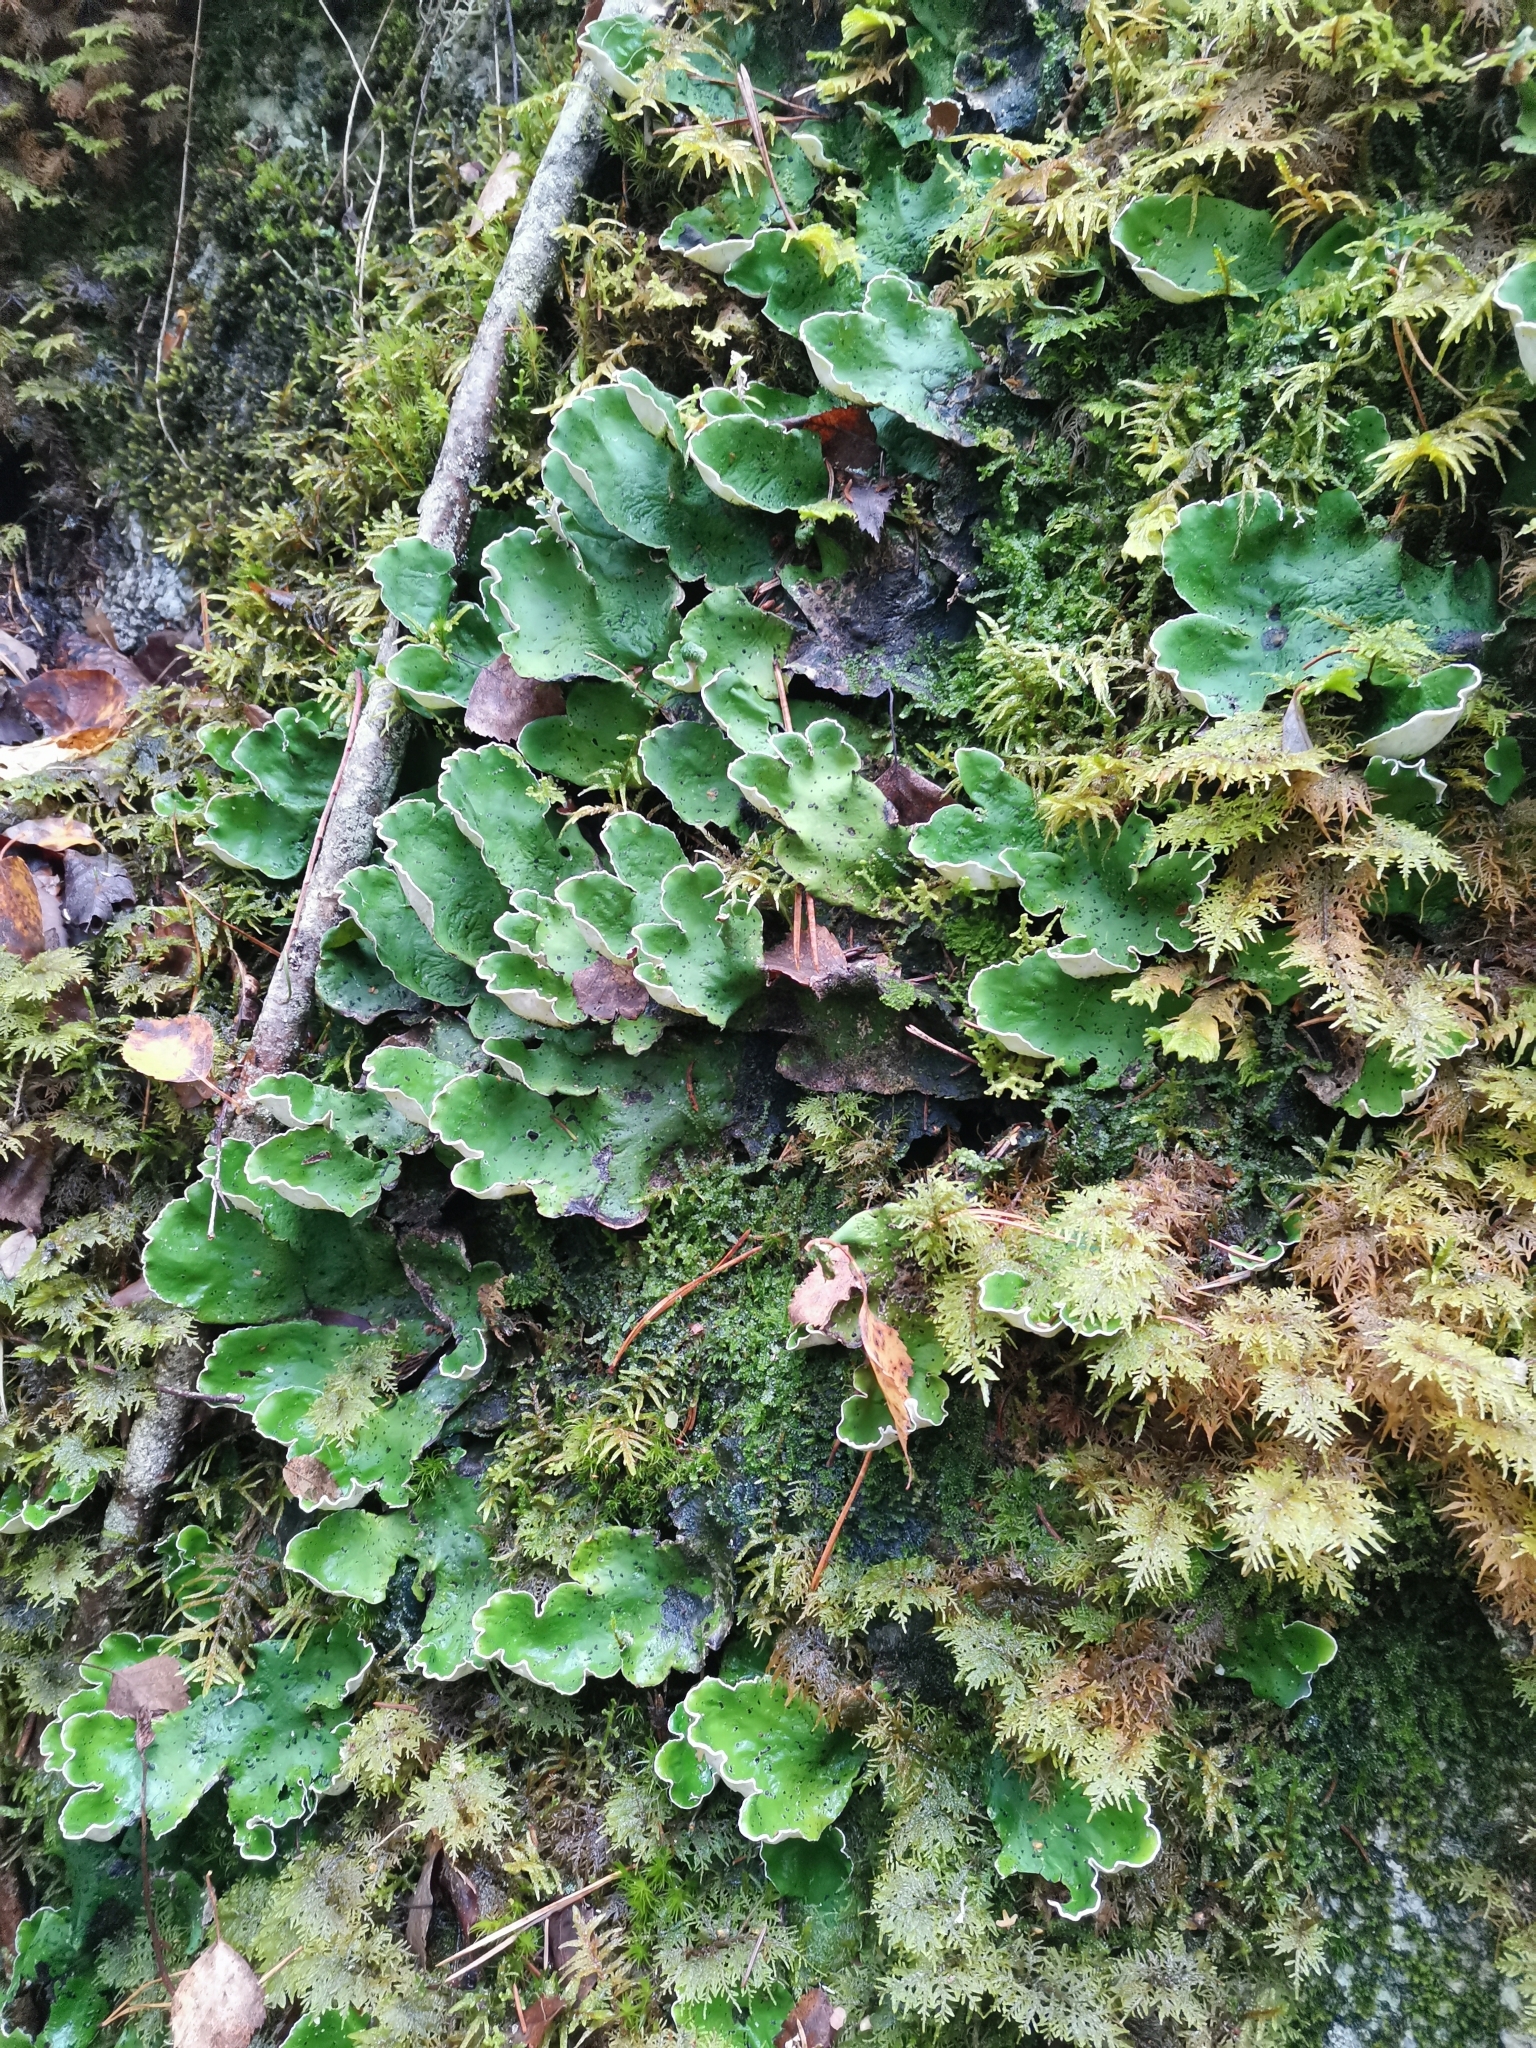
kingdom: Fungi
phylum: Ascomycota
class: Lecanoromycetes
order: Peltigerales
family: Peltigeraceae
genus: Peltigera
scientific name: Peltigera aphthosa
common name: Common freckle pelt lichen
